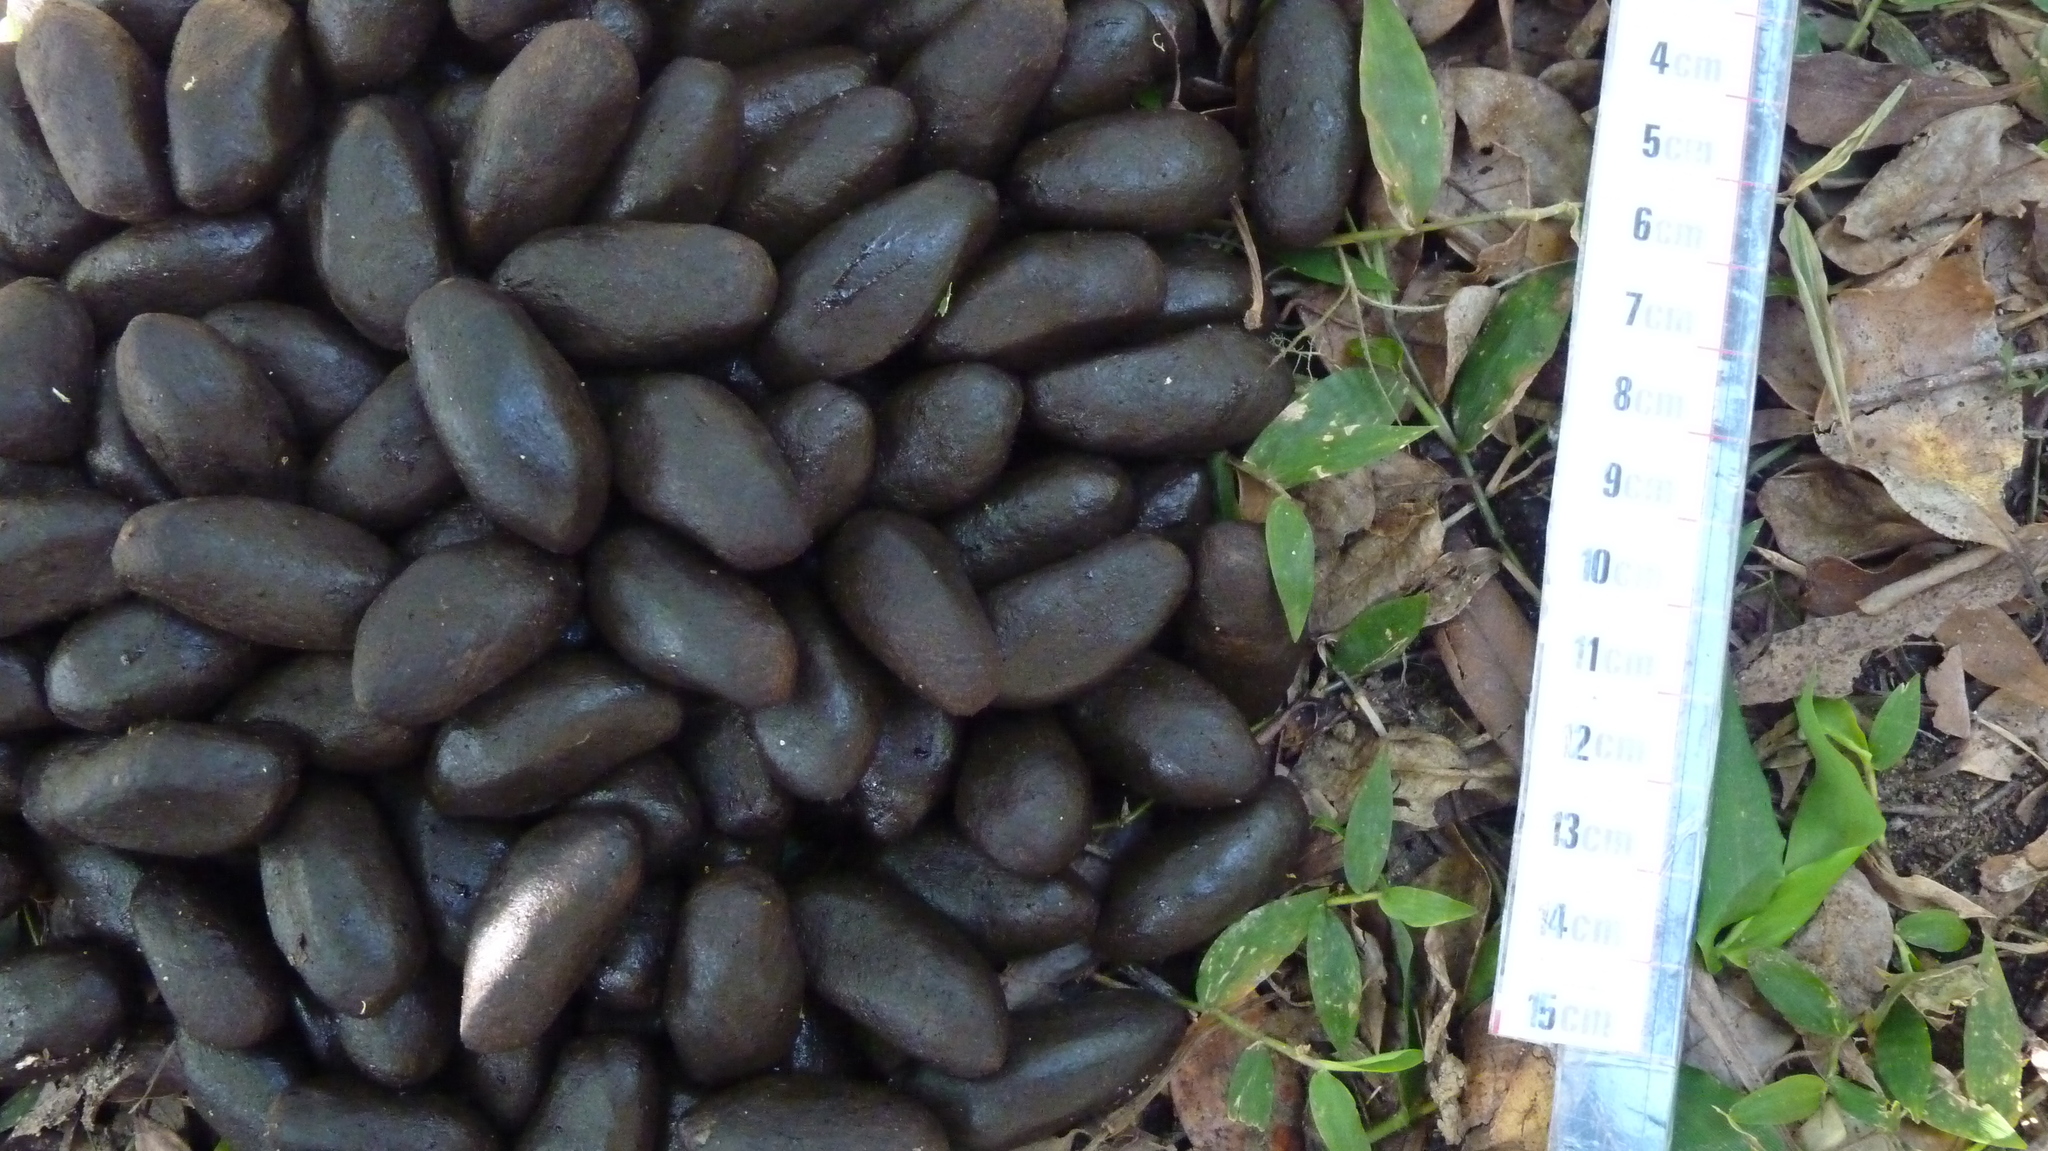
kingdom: Animalia
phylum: Chordata
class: Mammalia
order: Rodentia
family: Caviidae
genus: Hydrochoerus
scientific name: Hydrochoerus hydrochaeris
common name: Capybara
